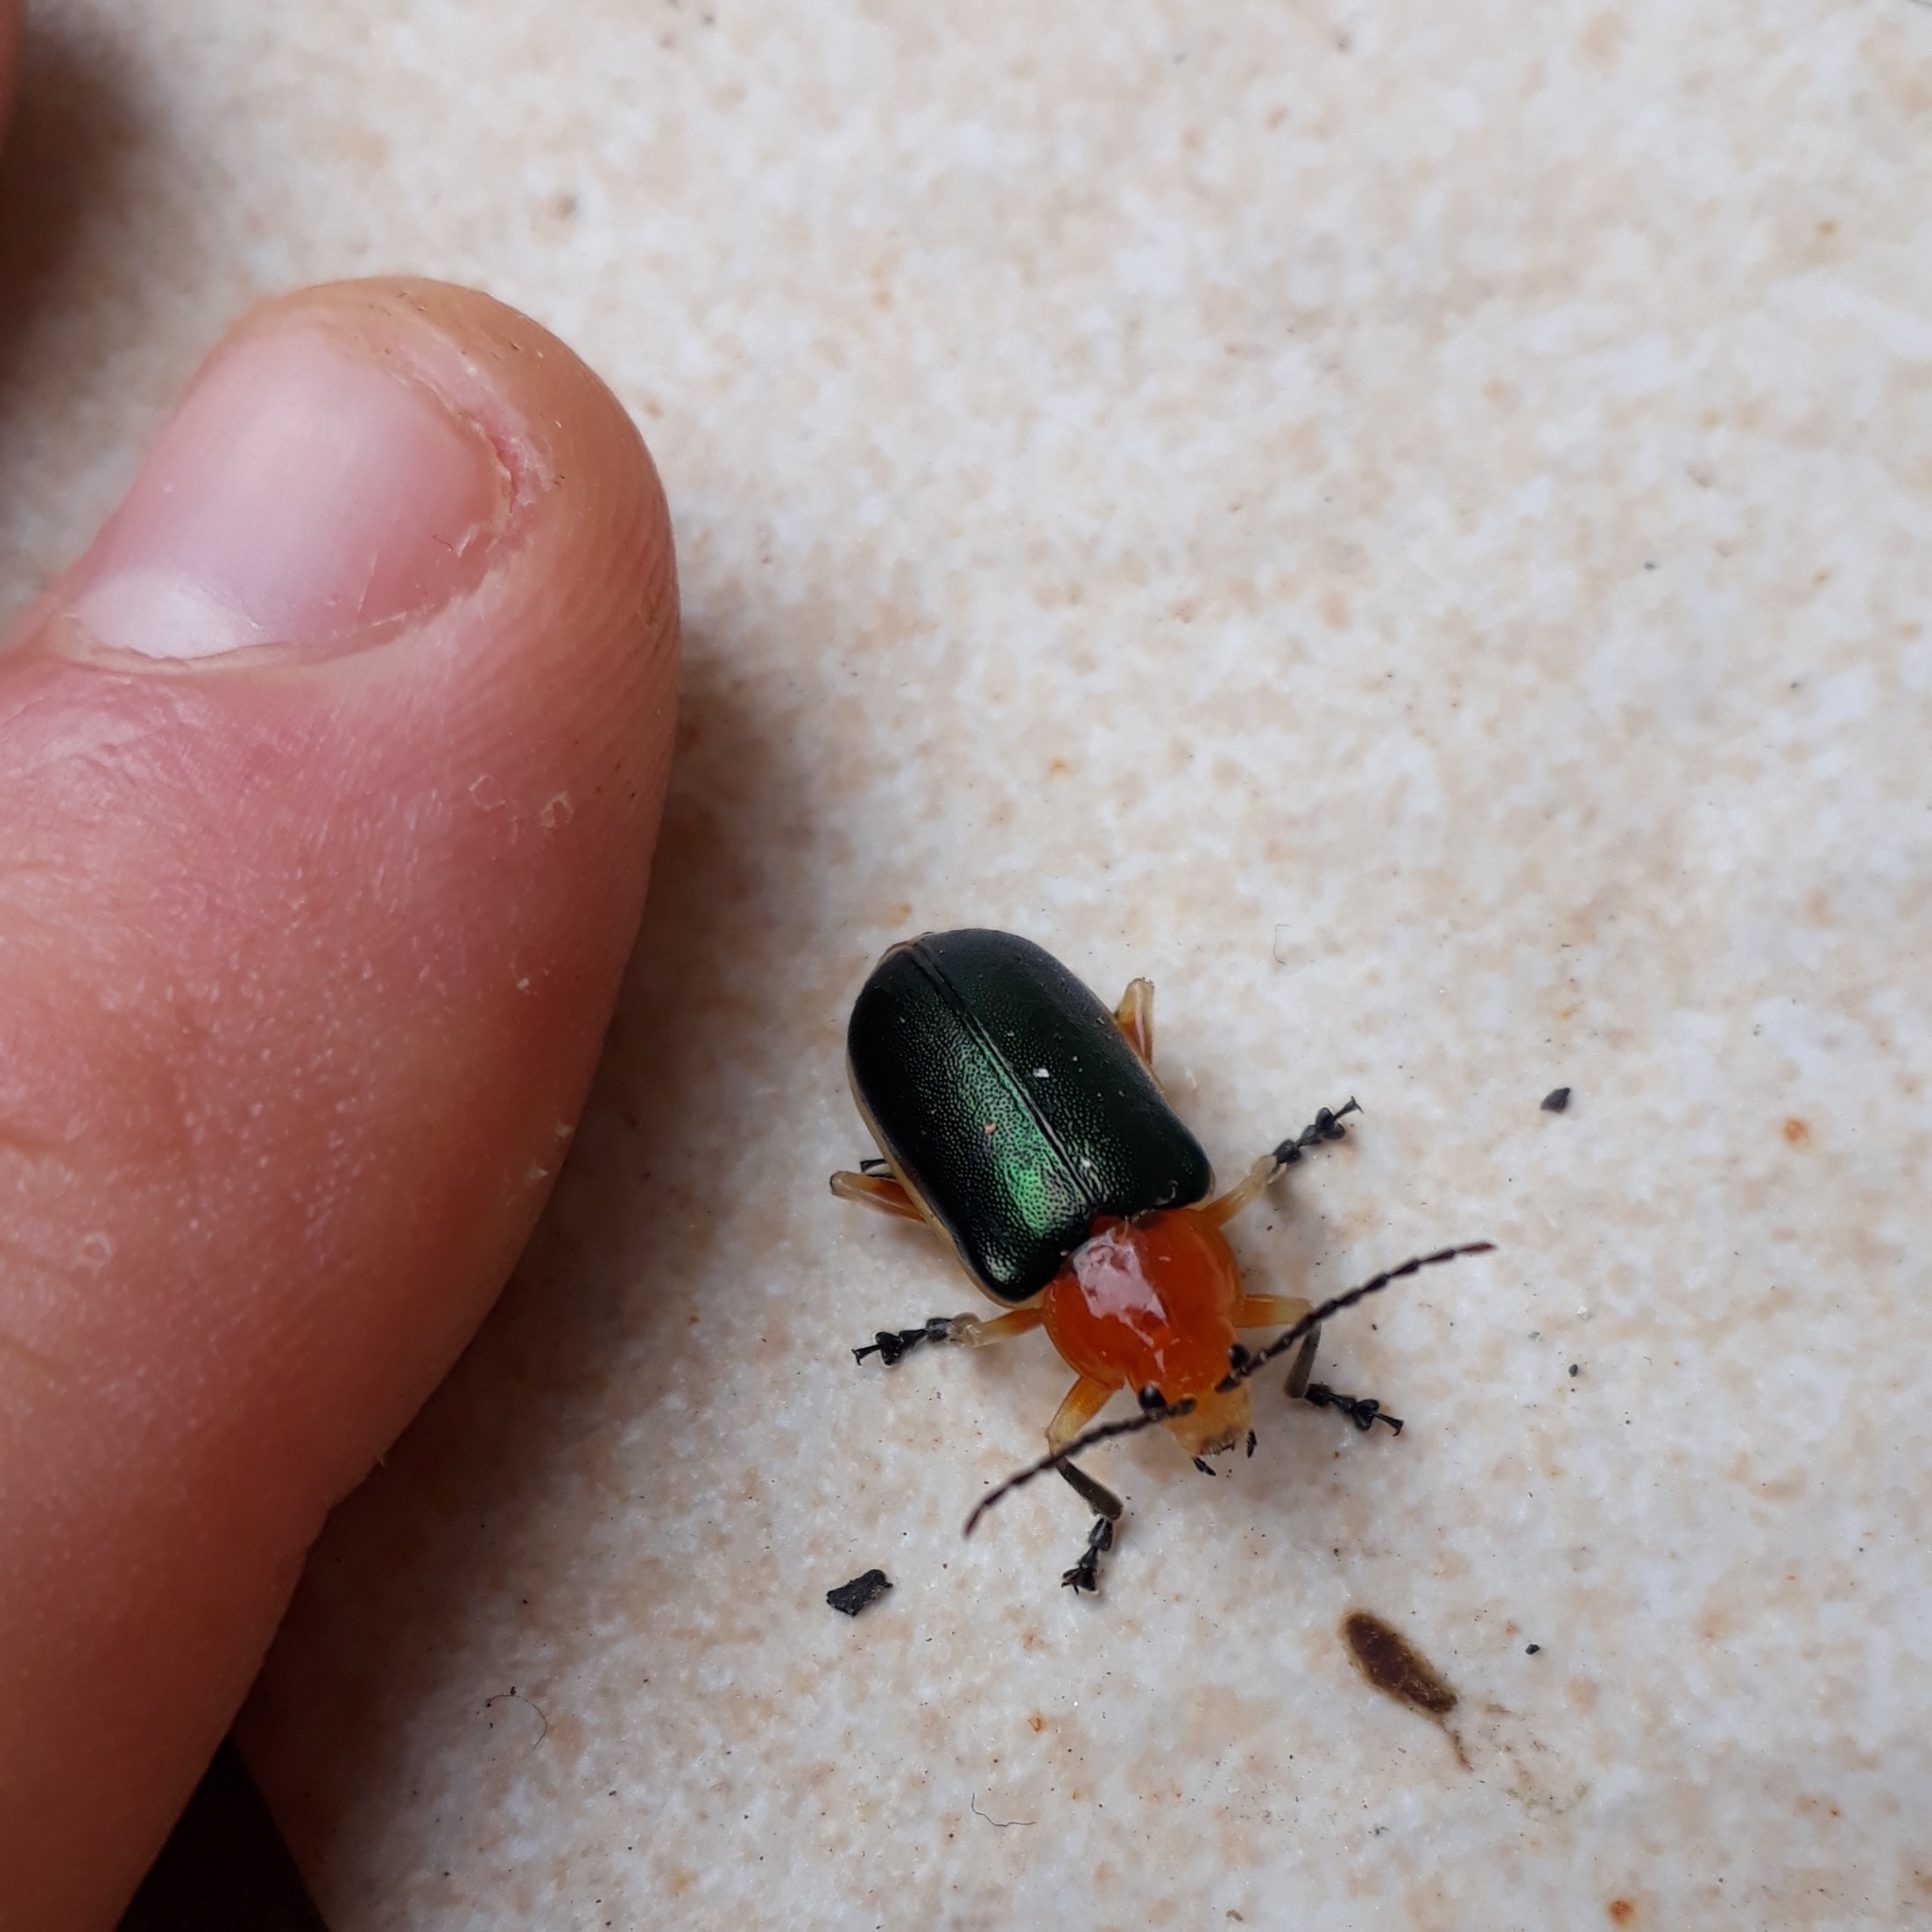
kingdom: Animalia
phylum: Arthropoda
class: Insecta
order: Coleoptera
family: Chrysomelidae
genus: Cacoscelis
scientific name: Cacoscelis marginata
